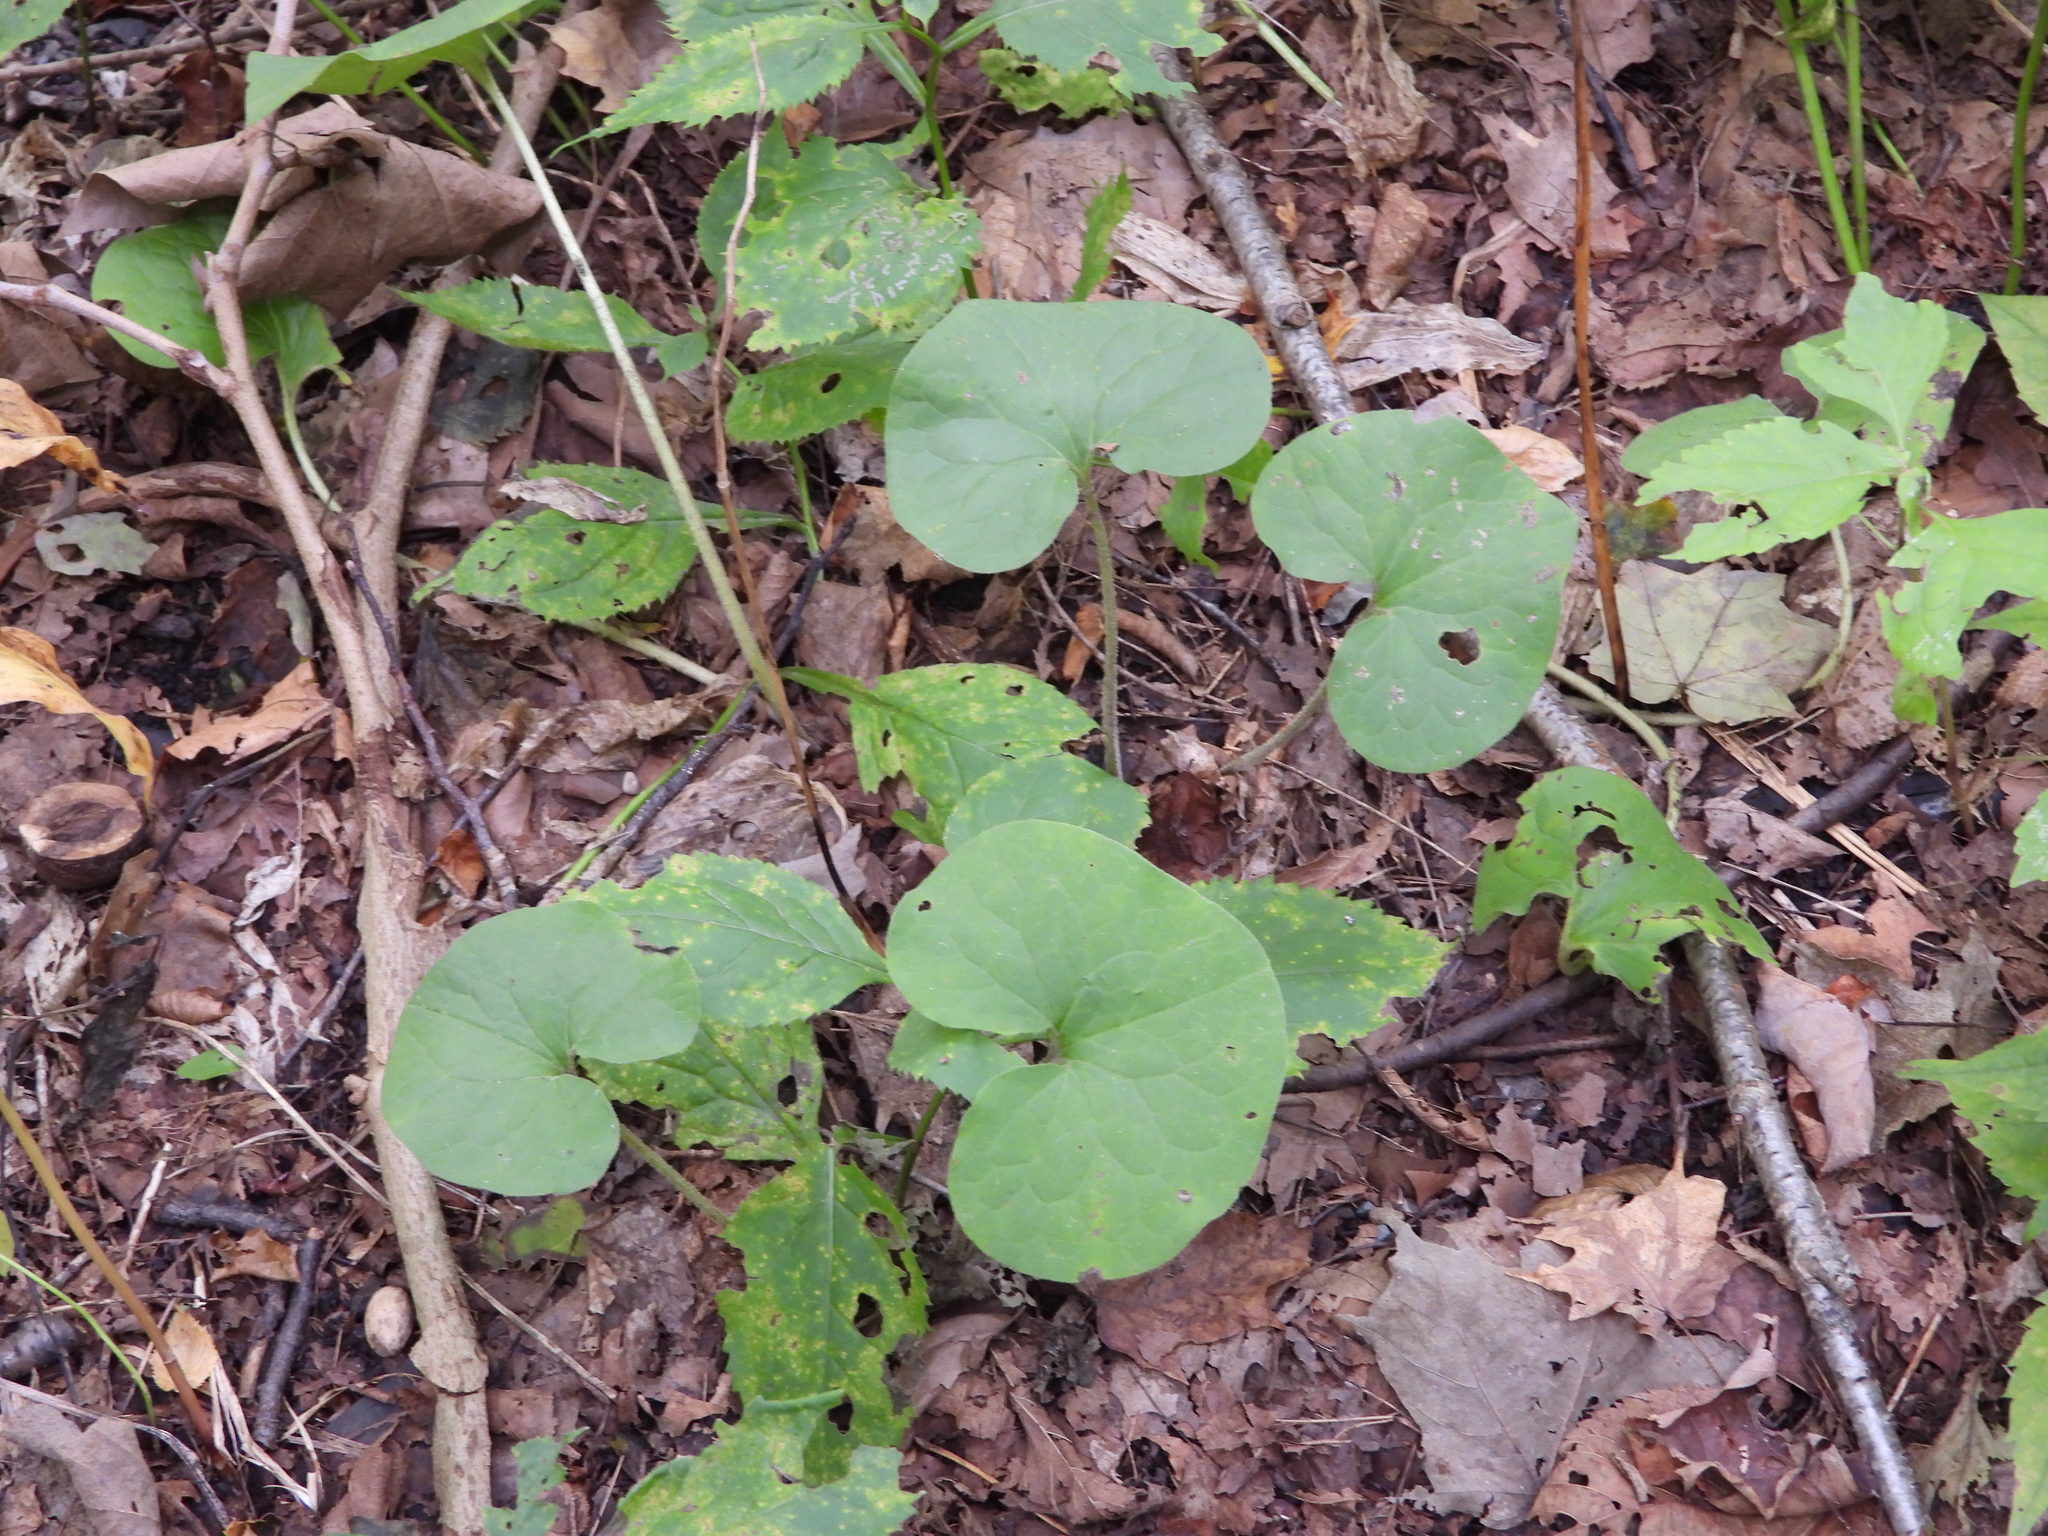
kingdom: Plantae
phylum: Tracheophyta
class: Magnoliopsida
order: Piperales
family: Aristolochiaceae
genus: Asarum
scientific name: Asarum canadense
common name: Wild ginger
